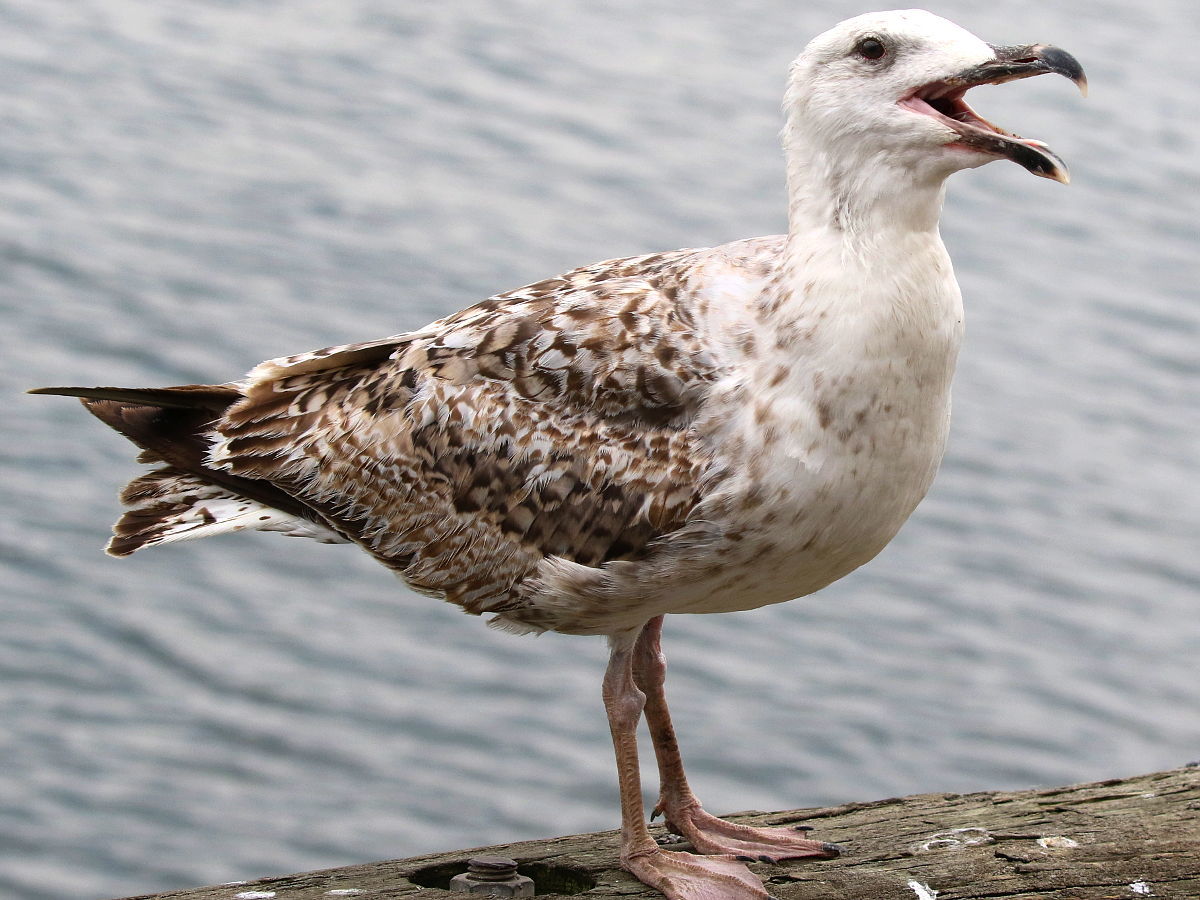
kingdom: Animalia
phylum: Chordata
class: Aves
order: Charadriiformes
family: Laridae
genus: Larus
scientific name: Larus marinus
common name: Great black-backed gull
